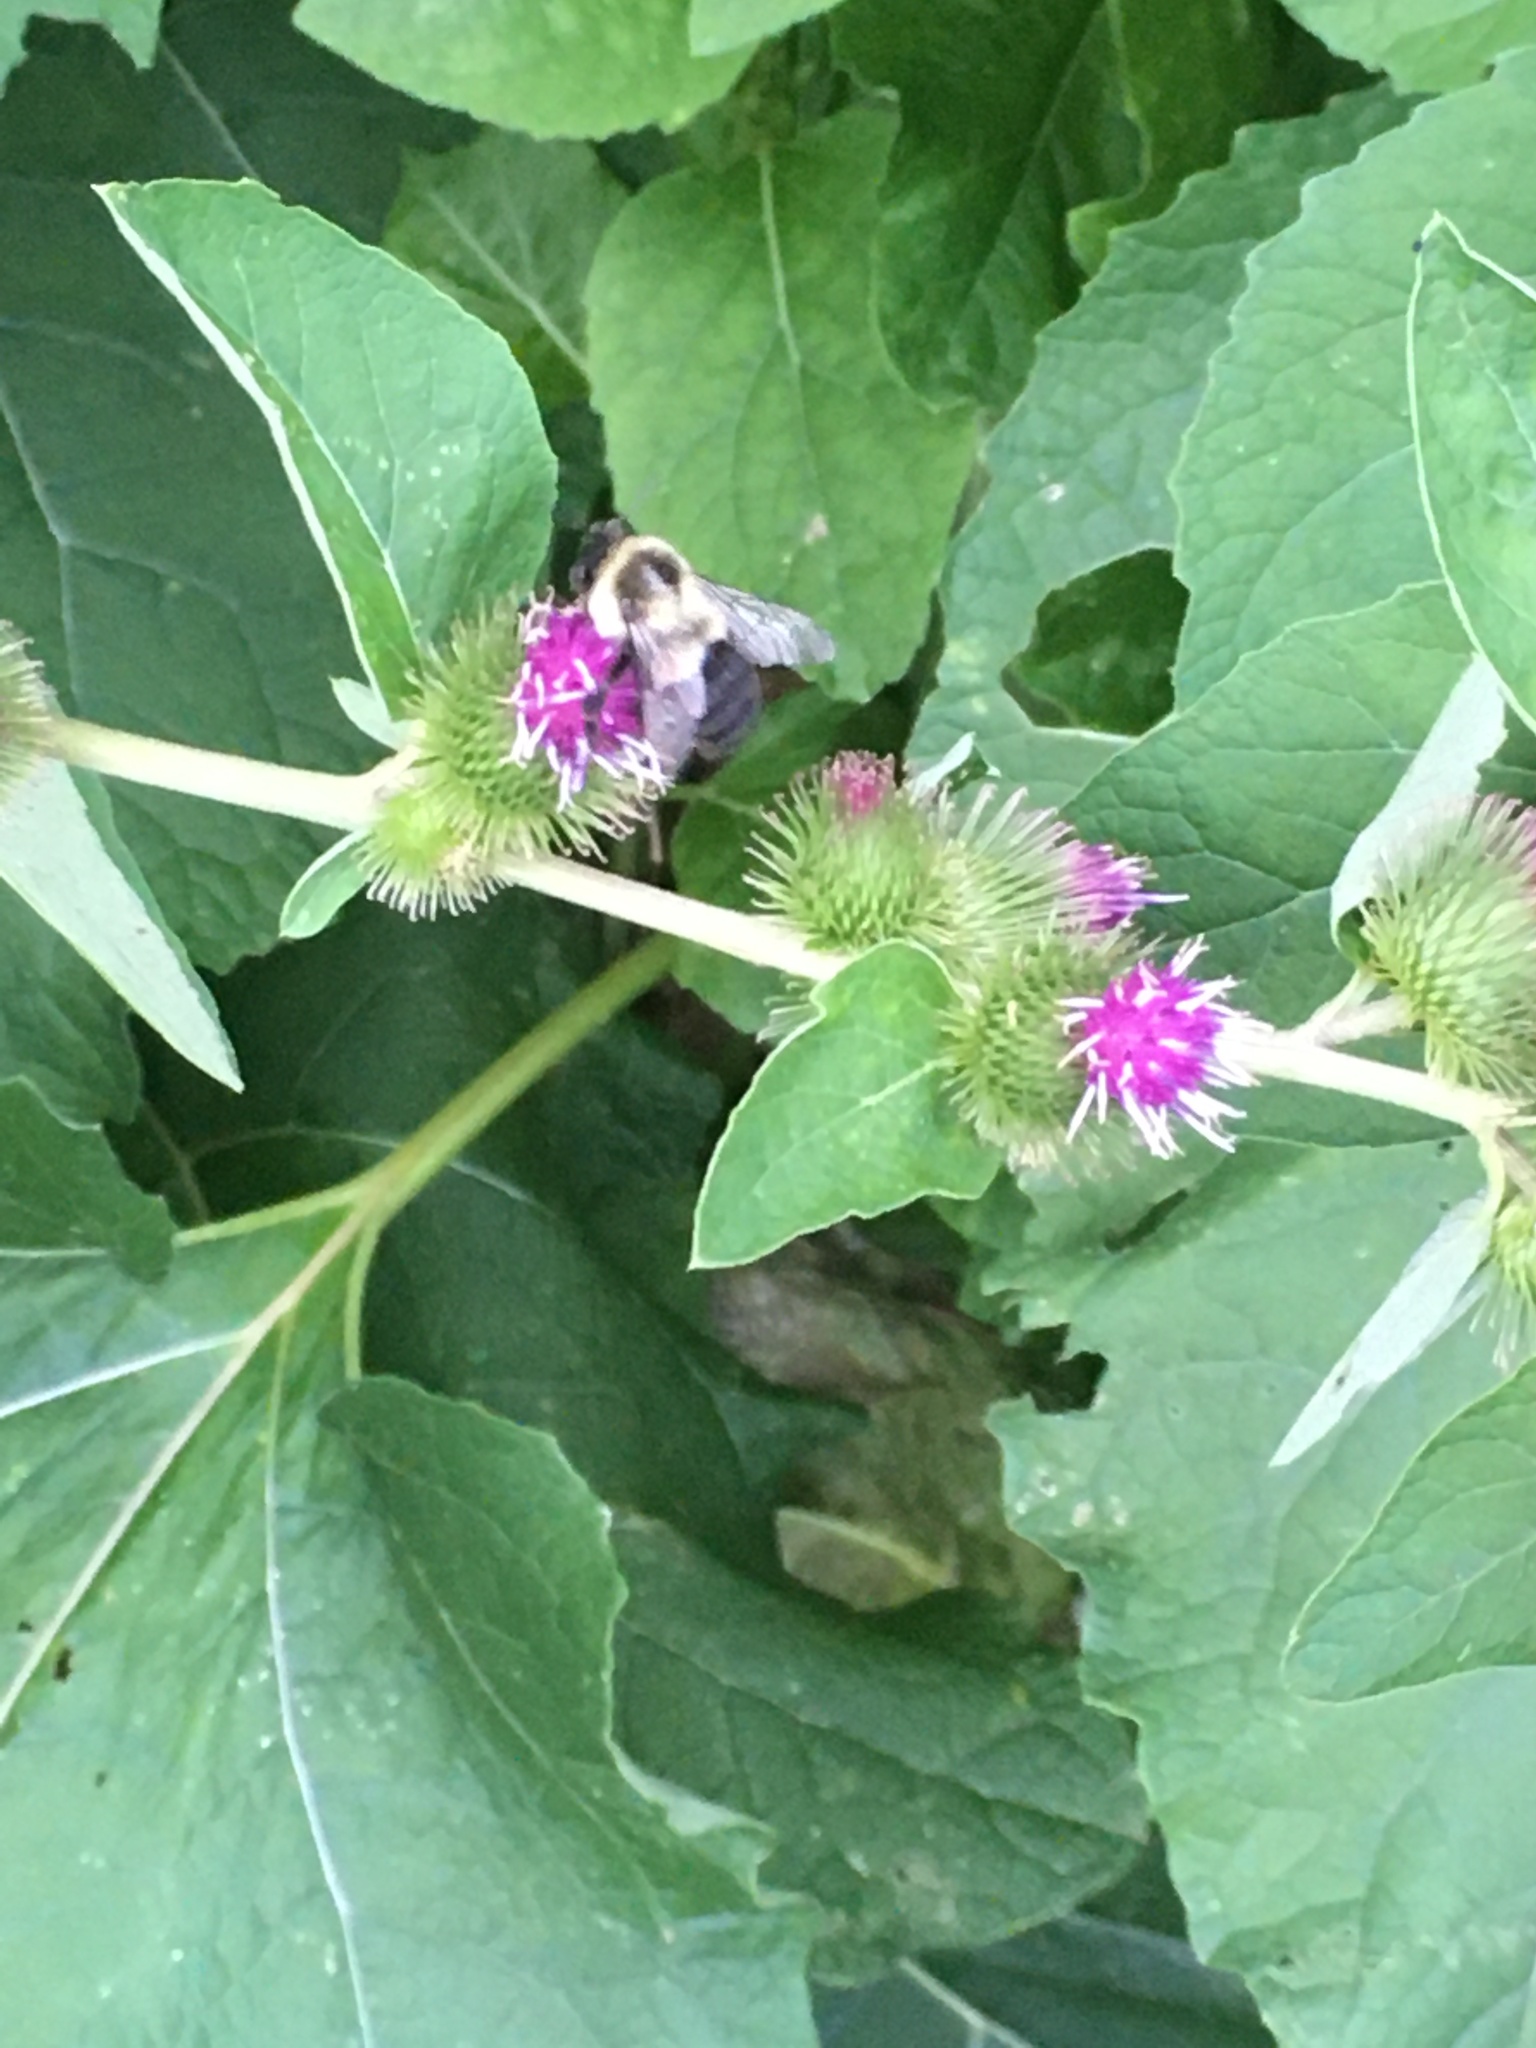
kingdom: Animalia
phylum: Arthropoda
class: Insecta
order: Hymenoptera
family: Apidae
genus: Bombus
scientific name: Bombus impatiens
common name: Common eastern bumble bee
